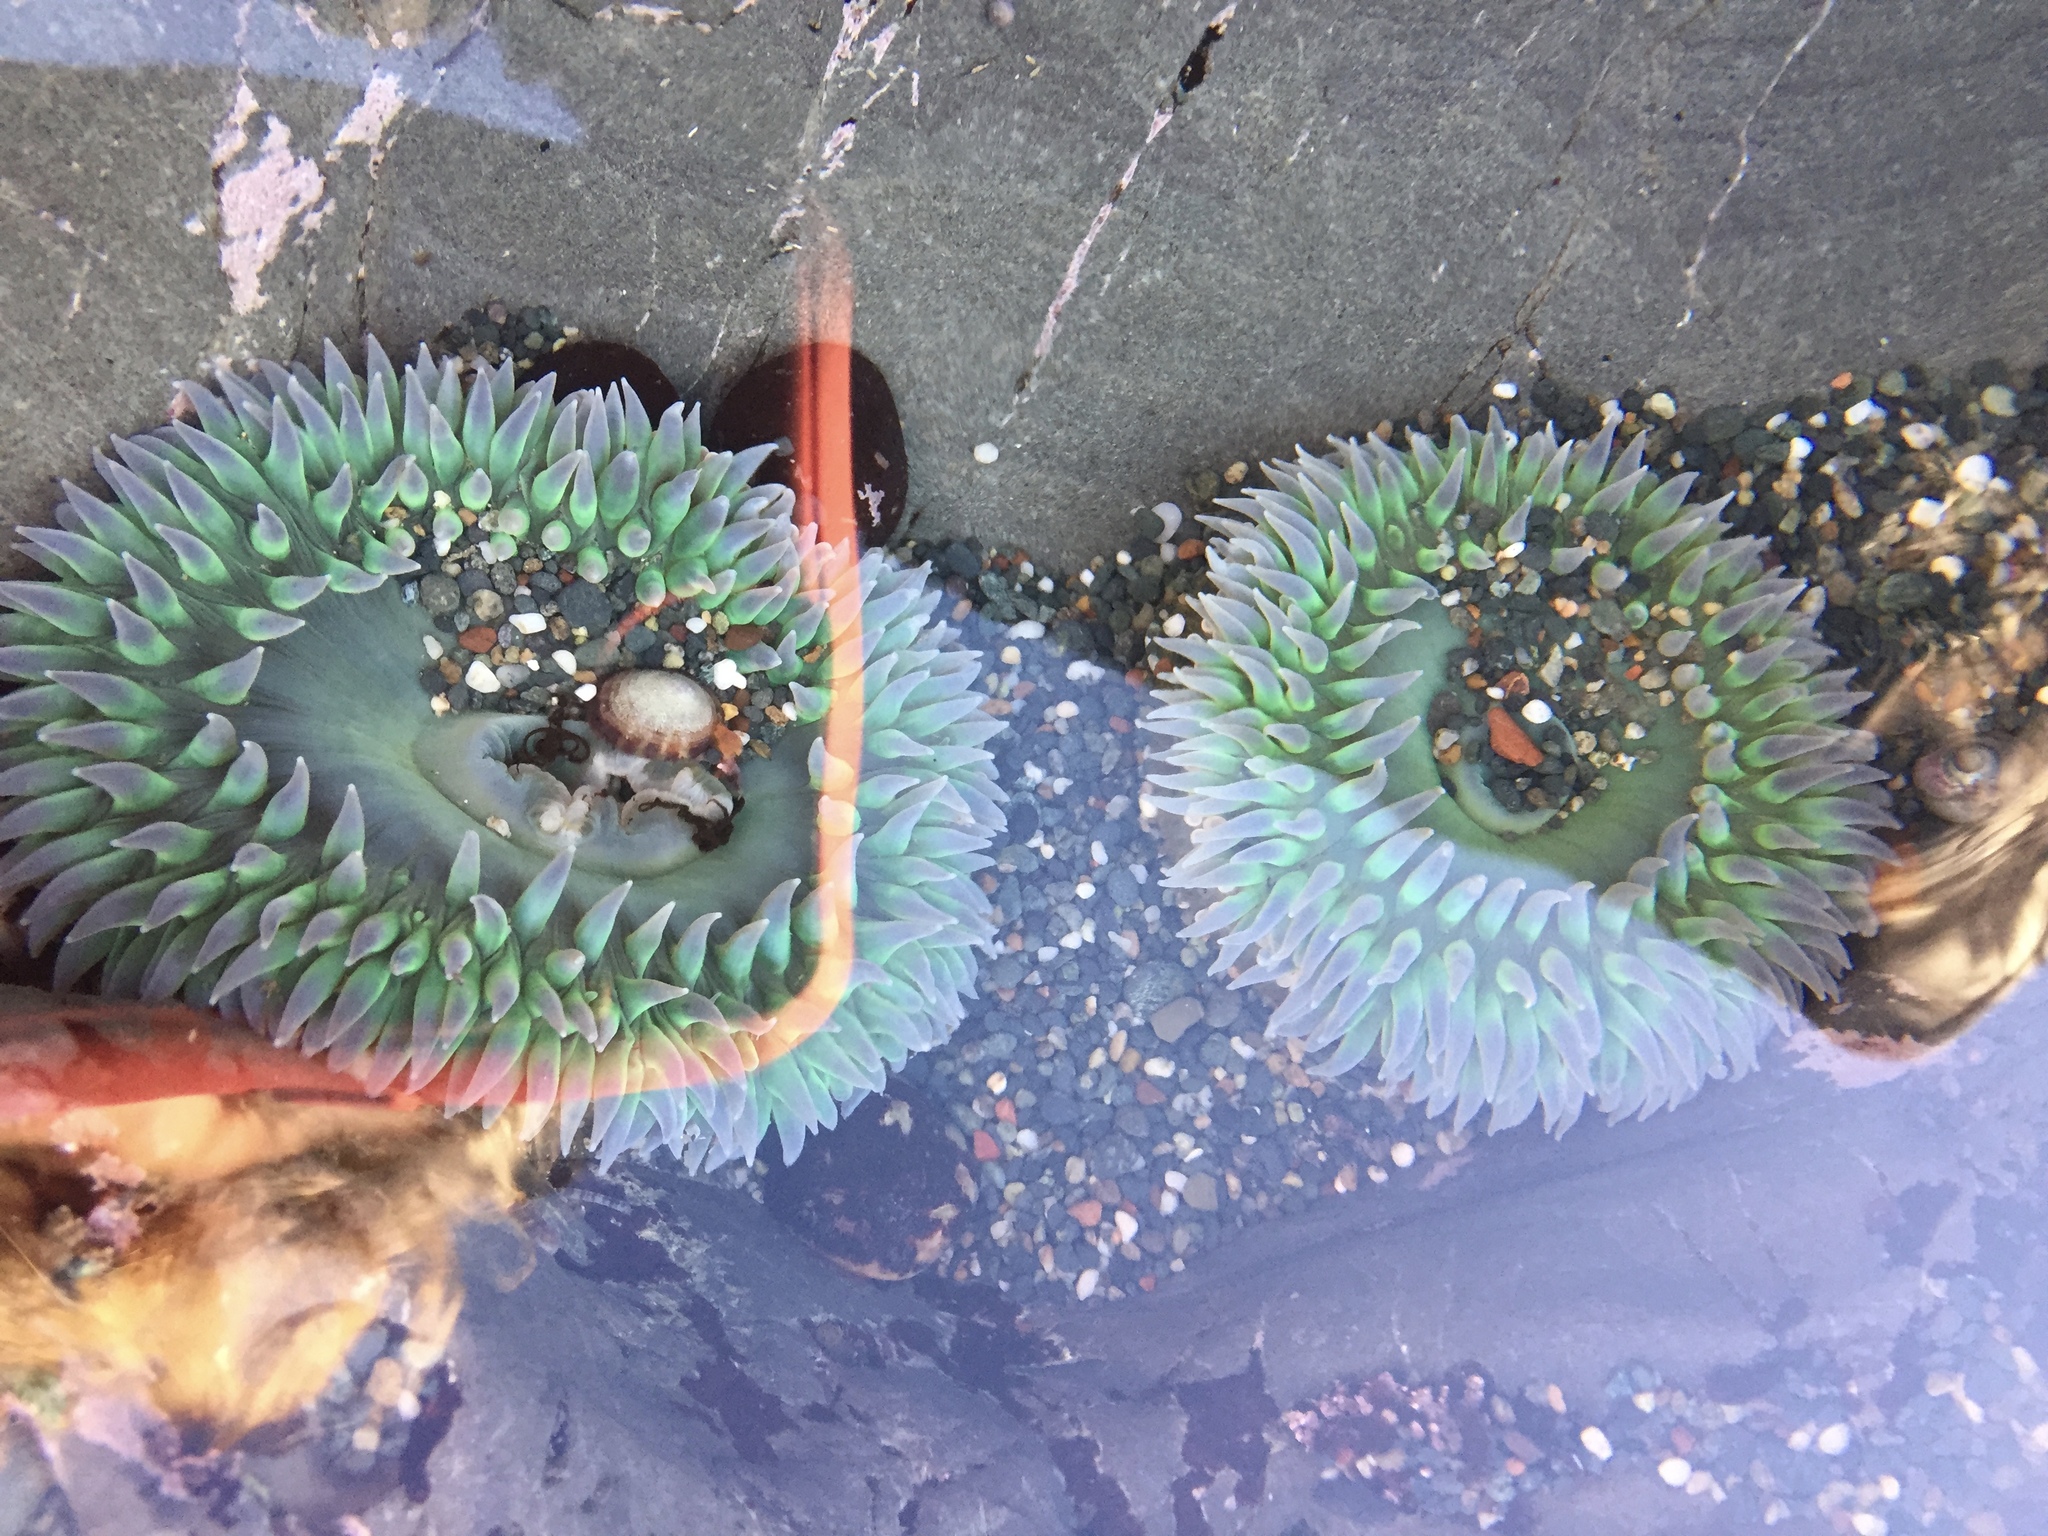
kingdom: Animalia
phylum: Cnidaria
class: Anthozoa
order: Actiniaria
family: Actiniidae
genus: Anthopleura
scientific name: Anthopleura xanthogrammica
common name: Giant green anemone
